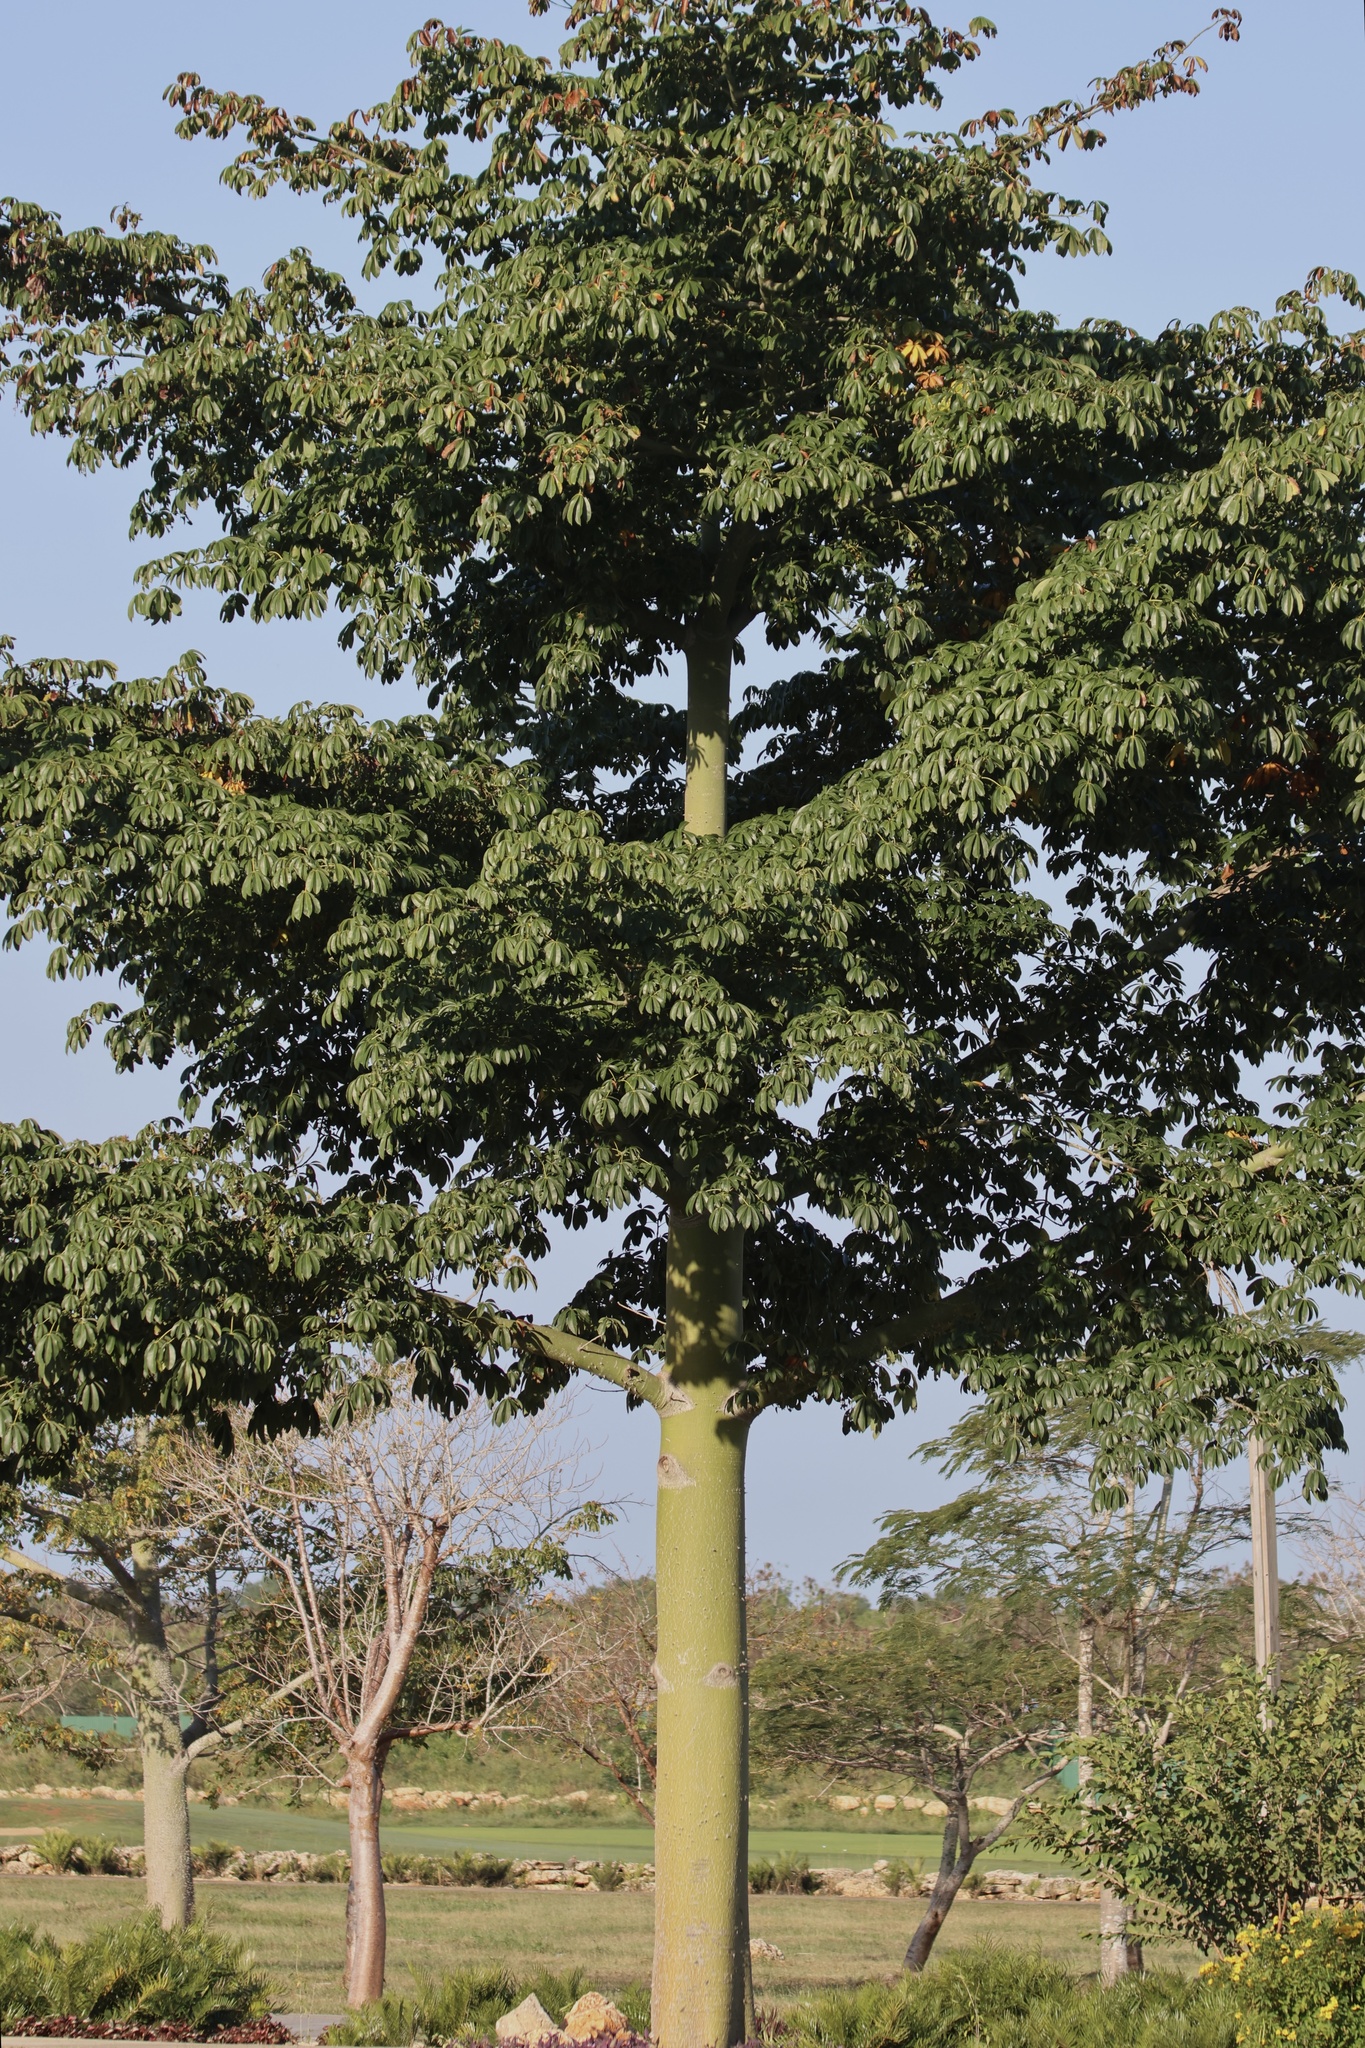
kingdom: Plantae
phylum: Tracheophyta
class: Magnoliopsida
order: Malvales
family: Malvaceae
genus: Ceiba
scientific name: Ceiba pentandra
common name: Kapok
